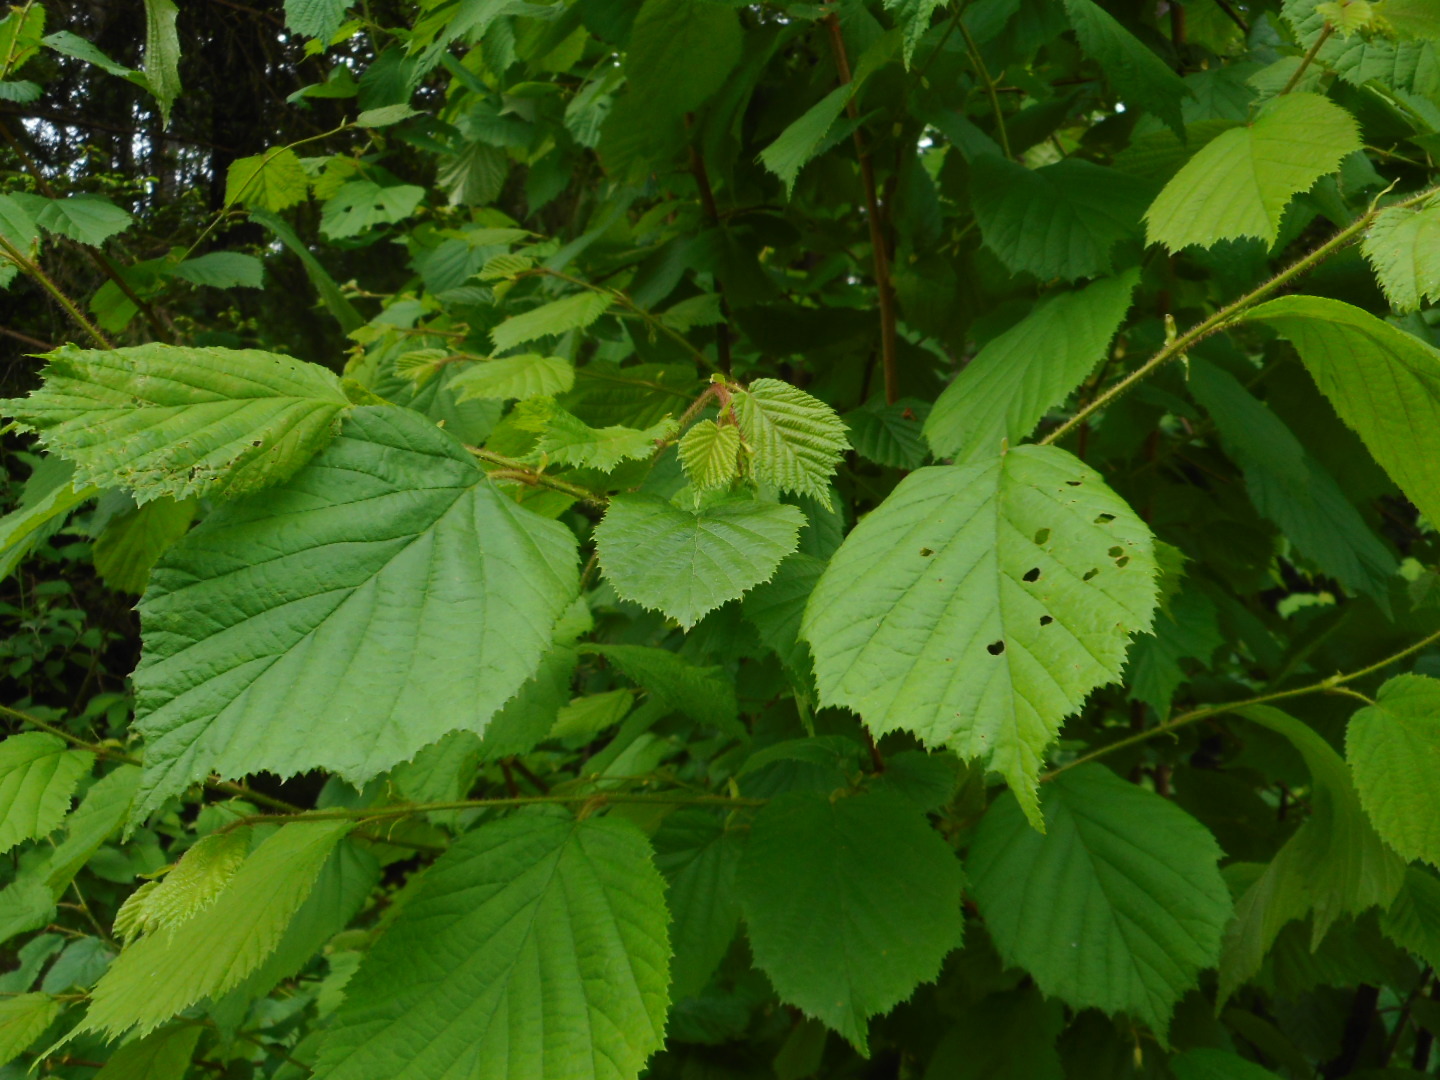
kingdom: Plantae
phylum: Tracheophyta
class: Magnoliopsida
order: Fagales
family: Betulaceae
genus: Corylus
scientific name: Corylus avellana
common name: European hazel
